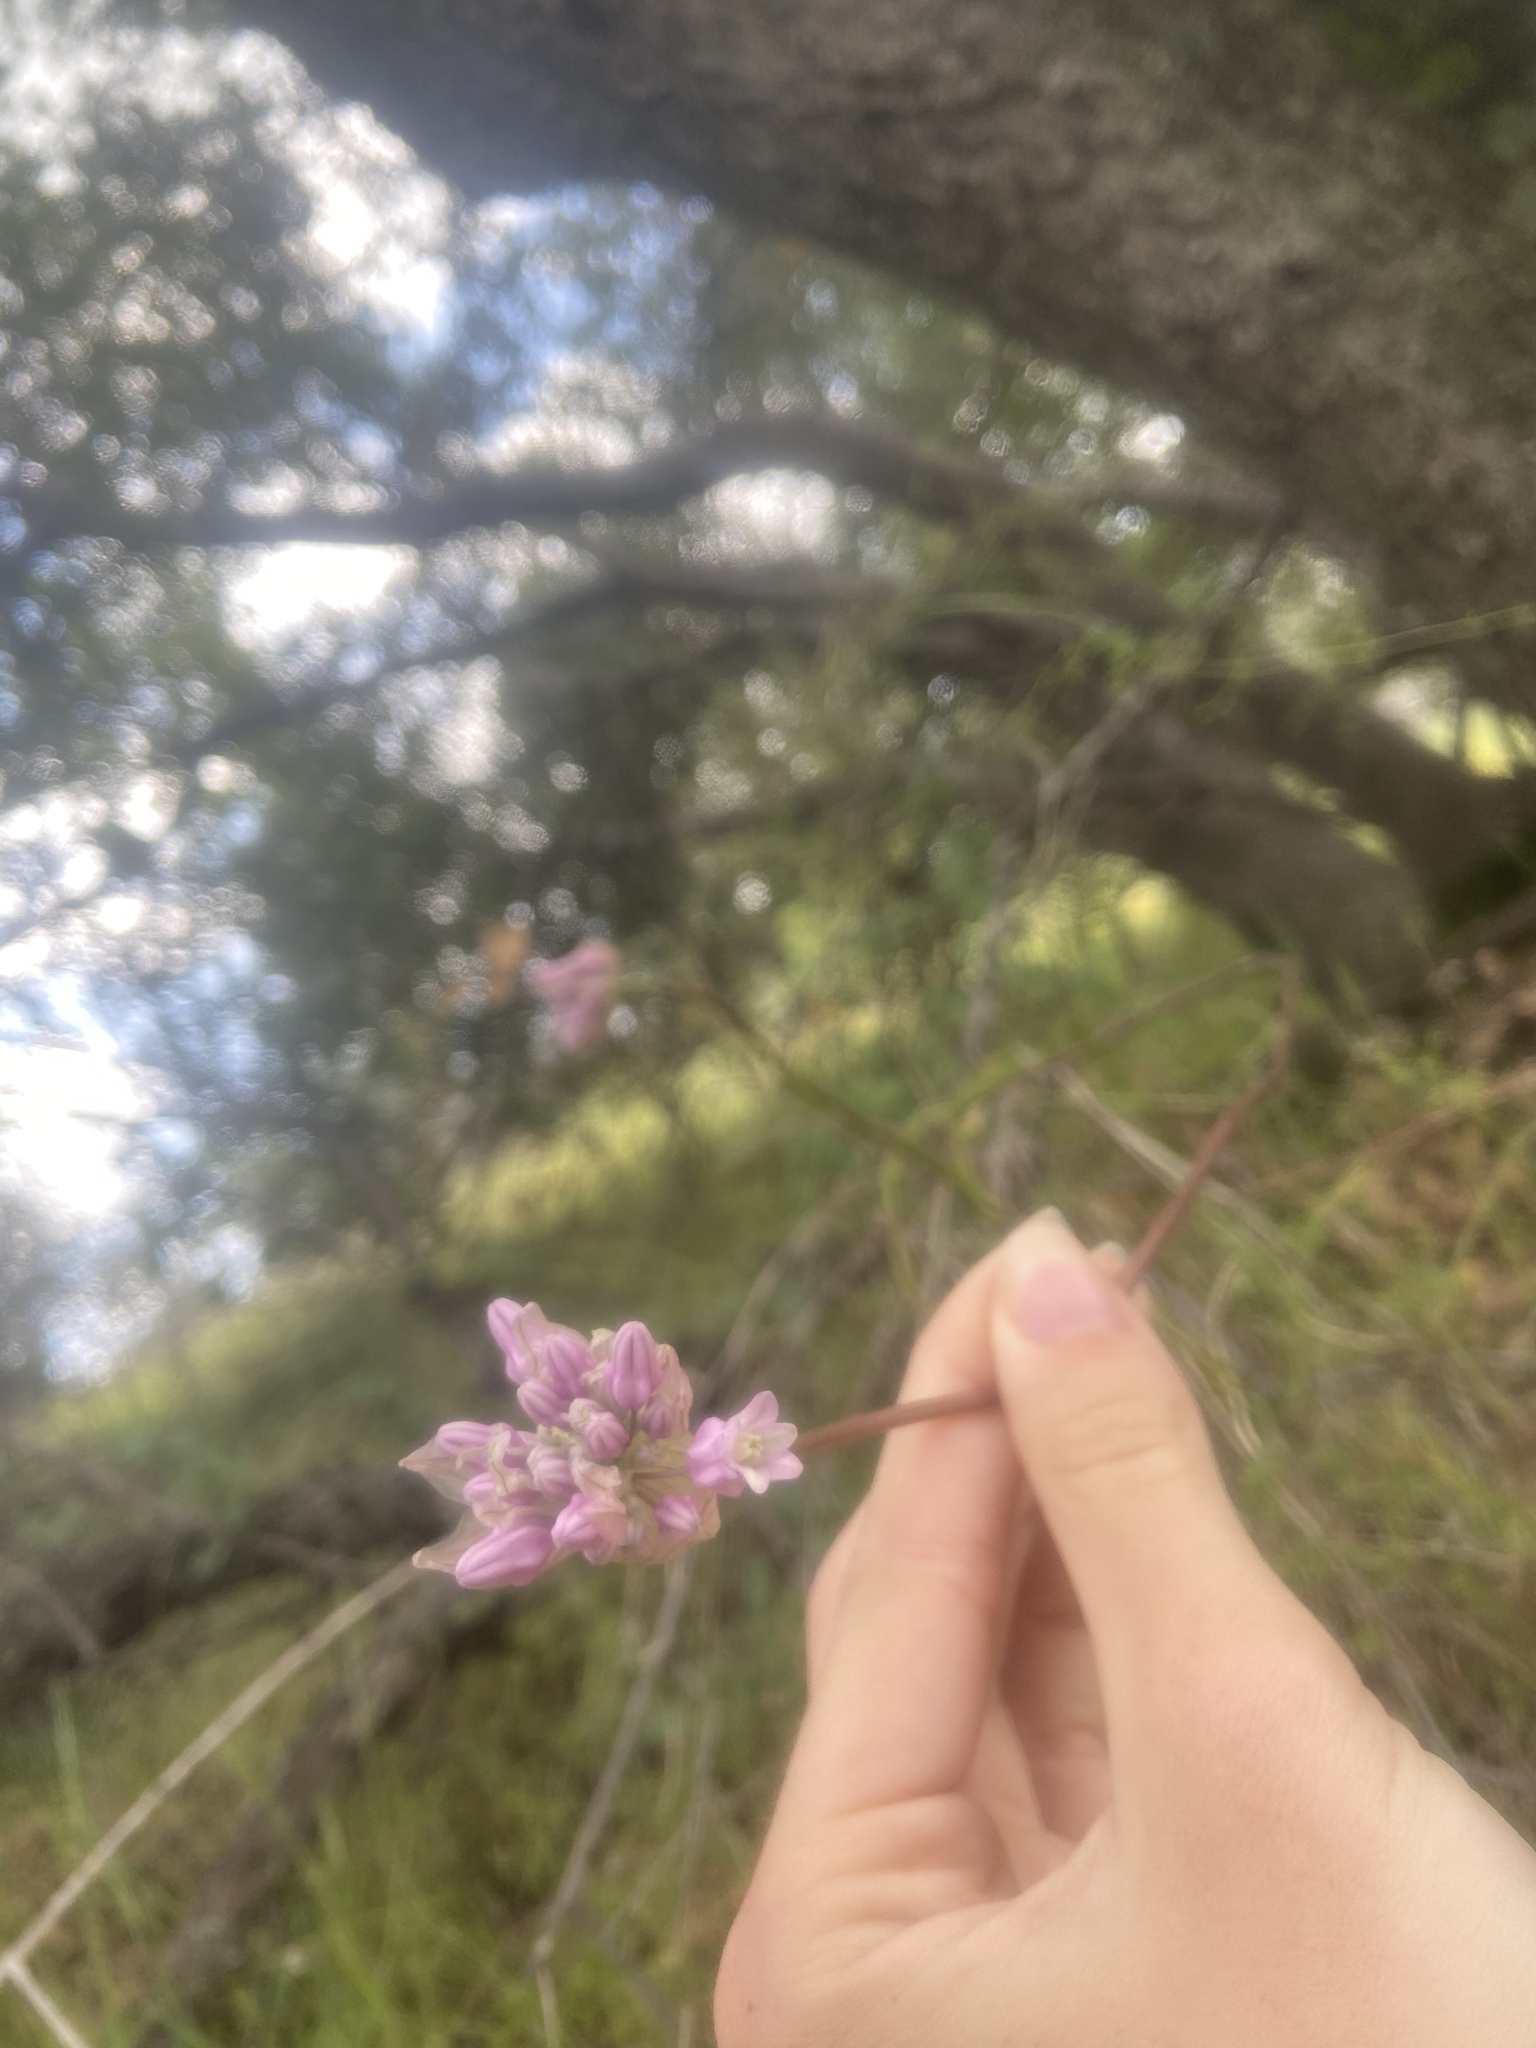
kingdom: Plantae
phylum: Tracheophyta
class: Liliopsida
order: Asparagales
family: Asparagaceae
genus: Dichelostemma
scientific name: Dichelostemma volubile
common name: Trining brodiaea
